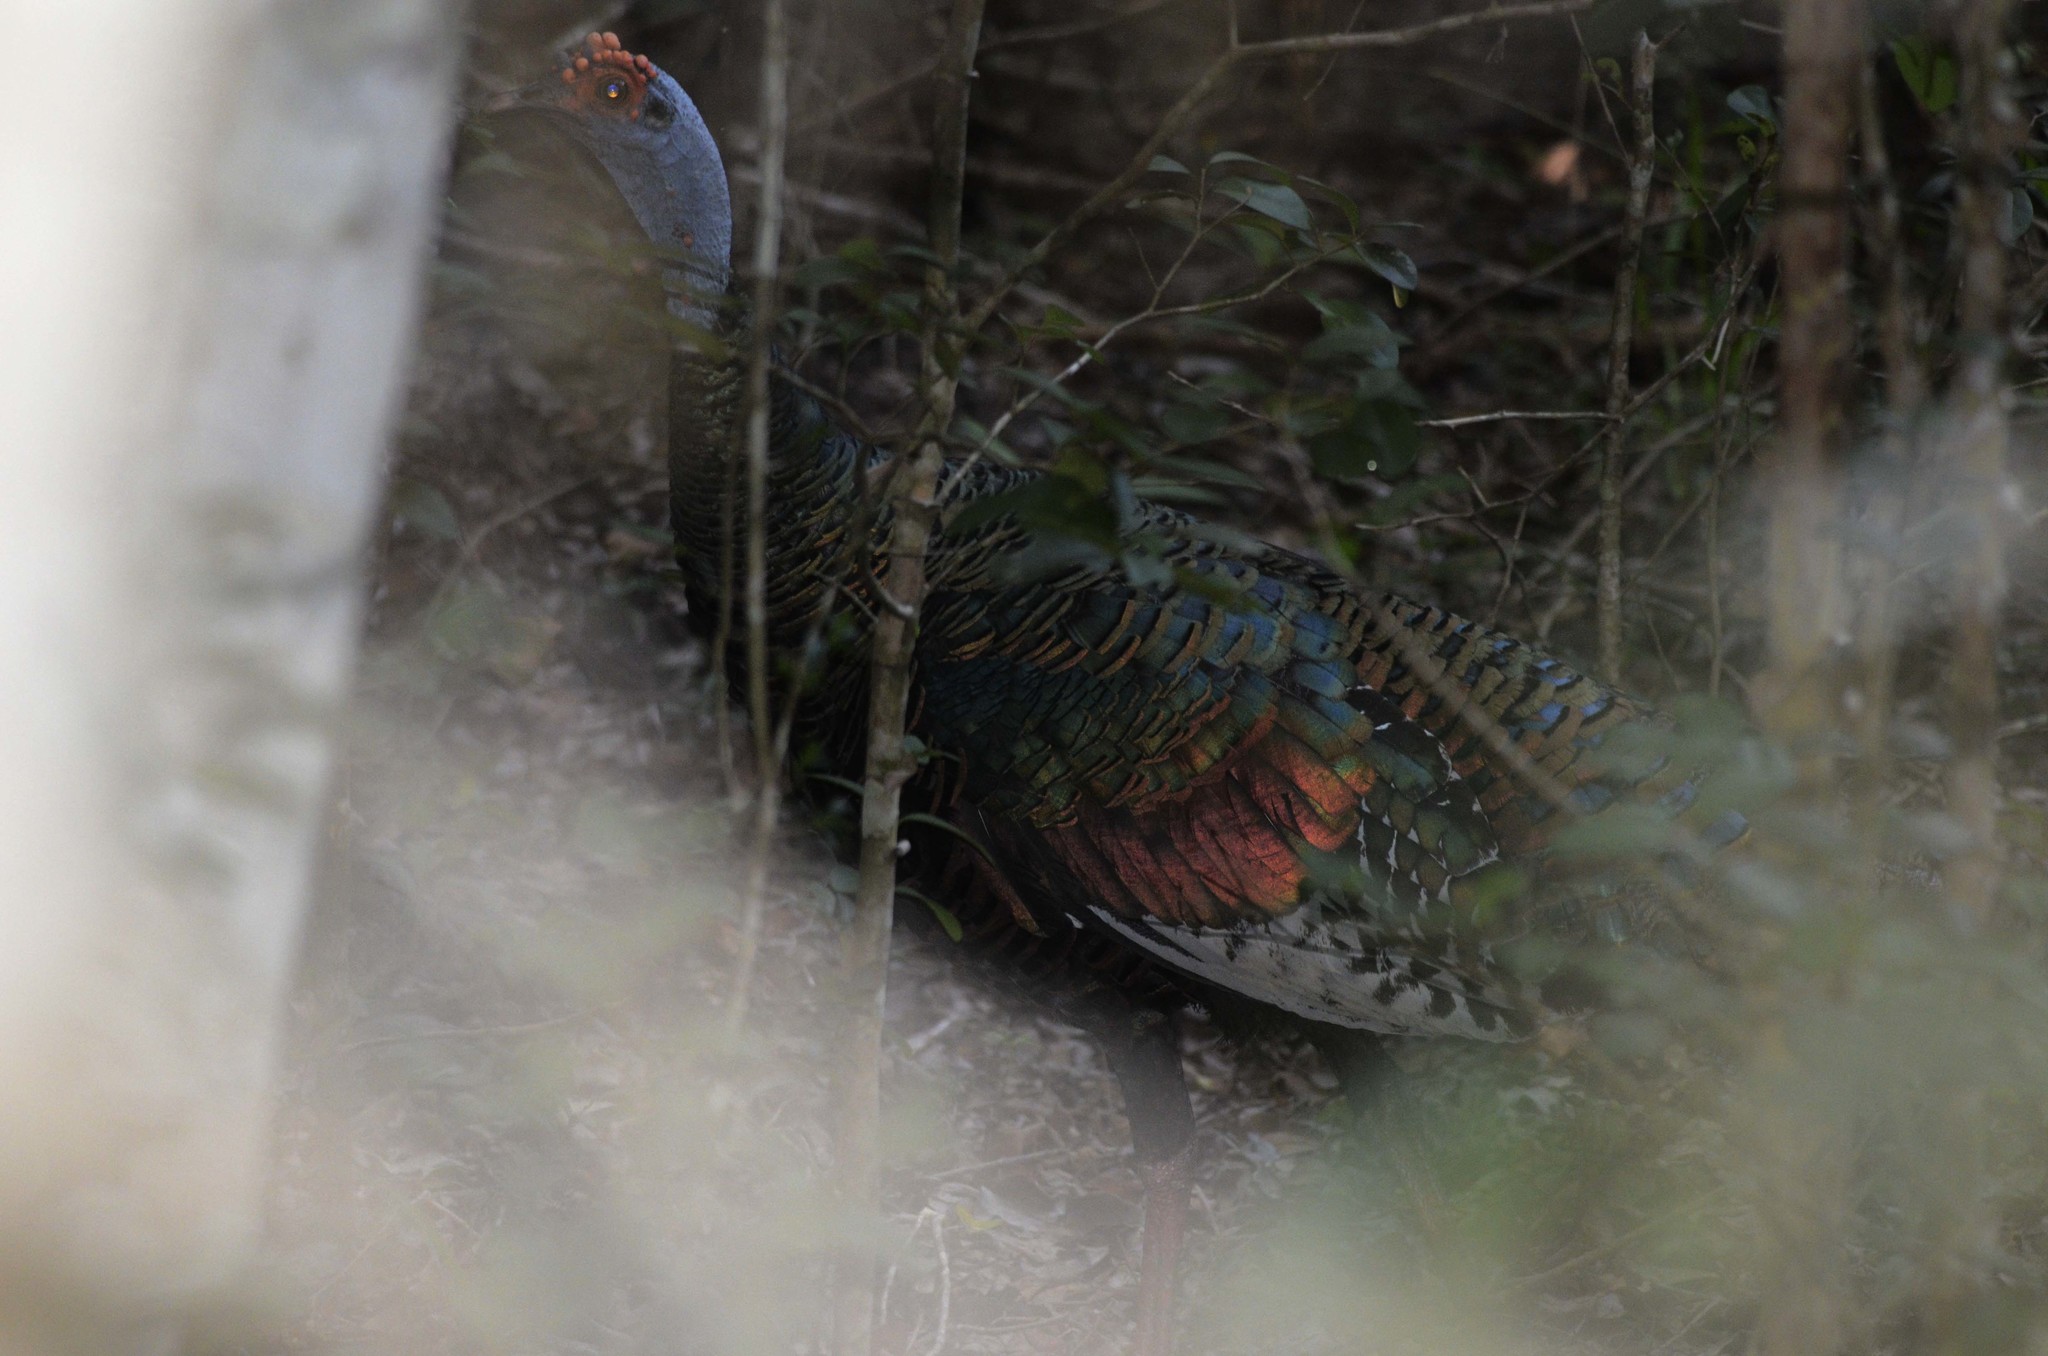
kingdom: Animalia
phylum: Chordata
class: Aves
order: Galliformes
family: Phasianidae
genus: Meleagris
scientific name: Meleagris ocellata
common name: Ocellated turkey
